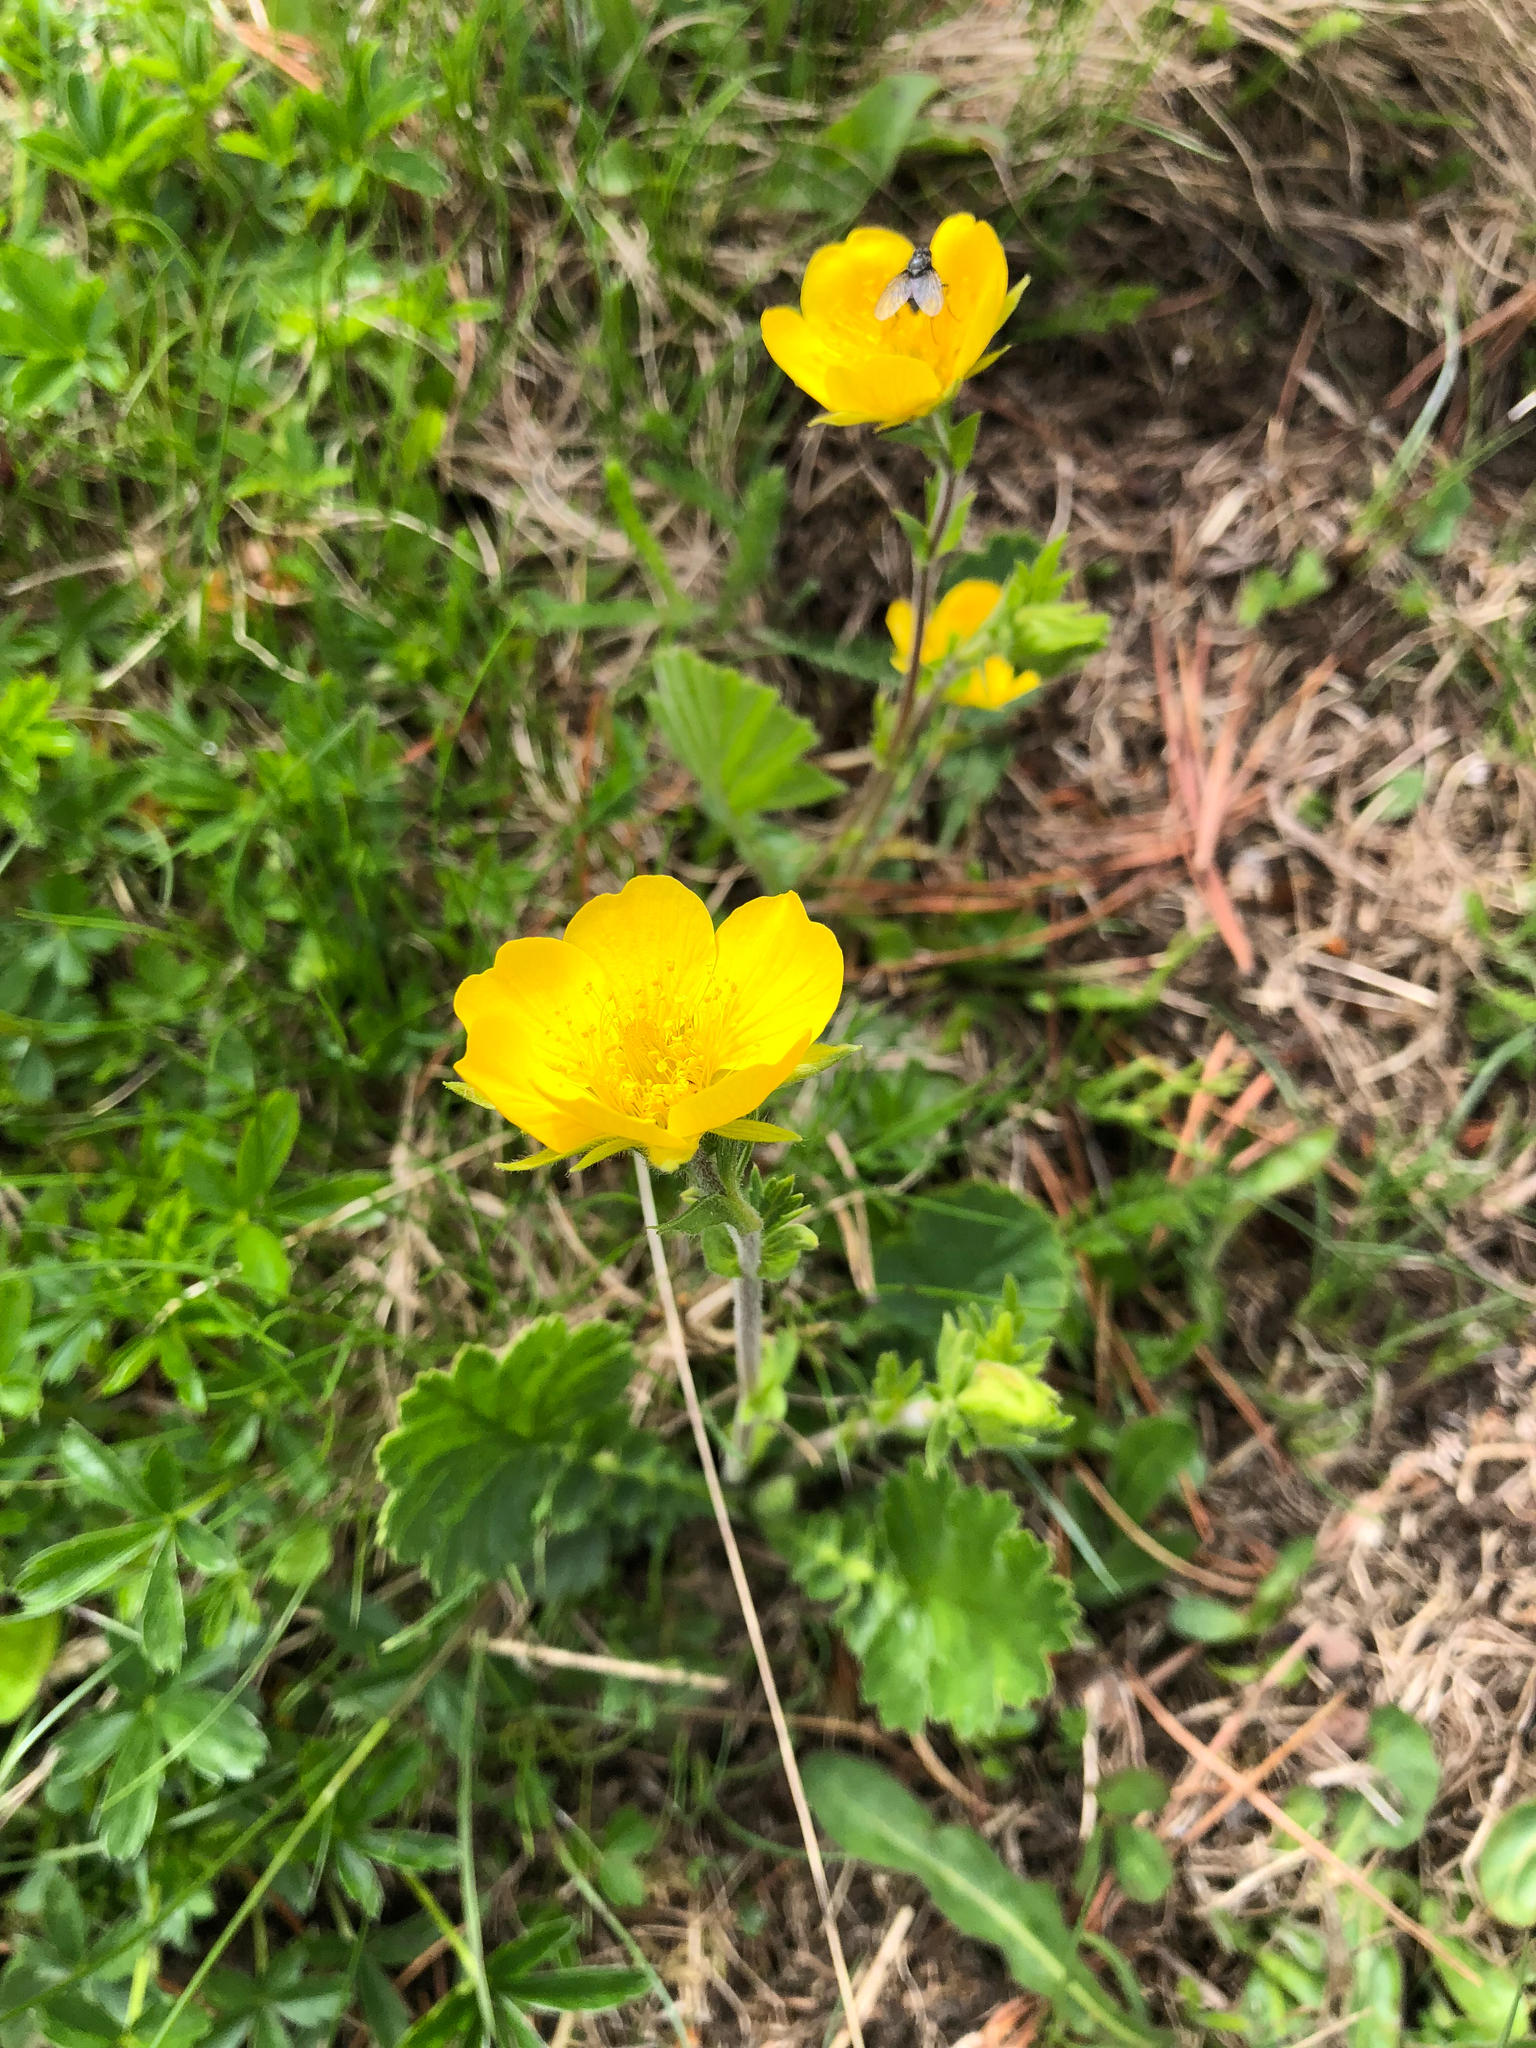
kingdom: Plantae
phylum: Tracheophyta
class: Magnoliopsida
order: Rosales
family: Rosaceae
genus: Geum
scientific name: Geum montanum
